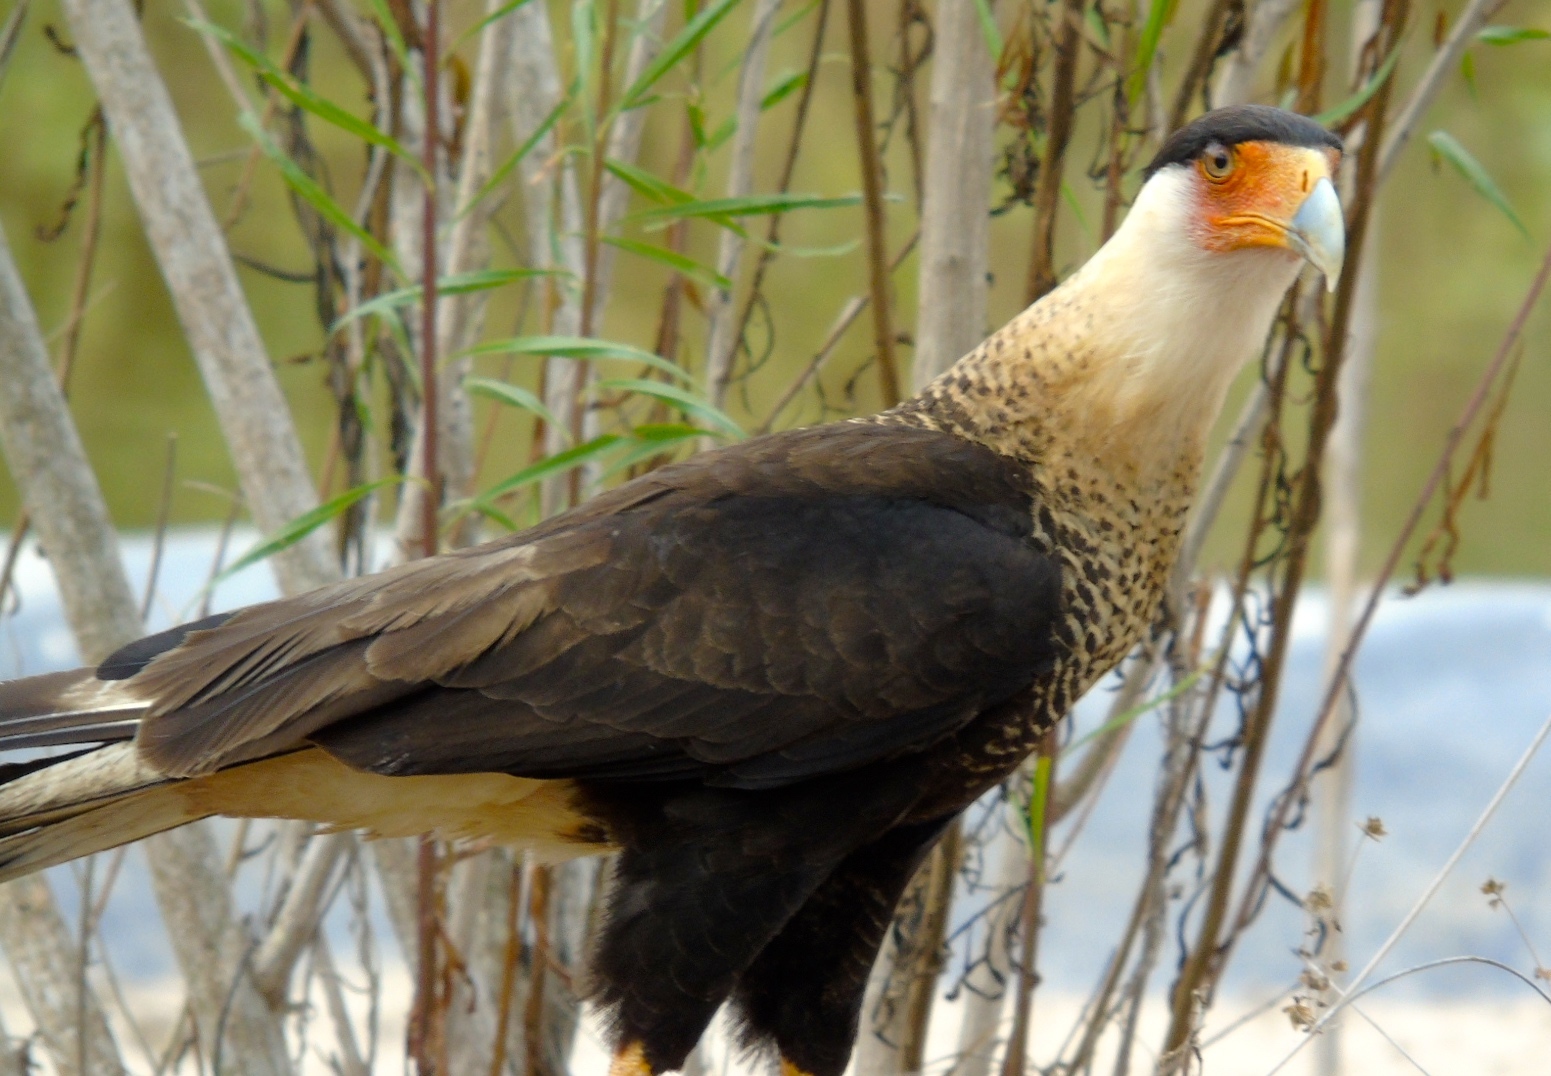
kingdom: Animalia
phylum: Chordata
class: Aves
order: Falconiformes
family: Falconidae
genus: Caracara
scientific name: Caracara plancus
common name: Southern caracara
